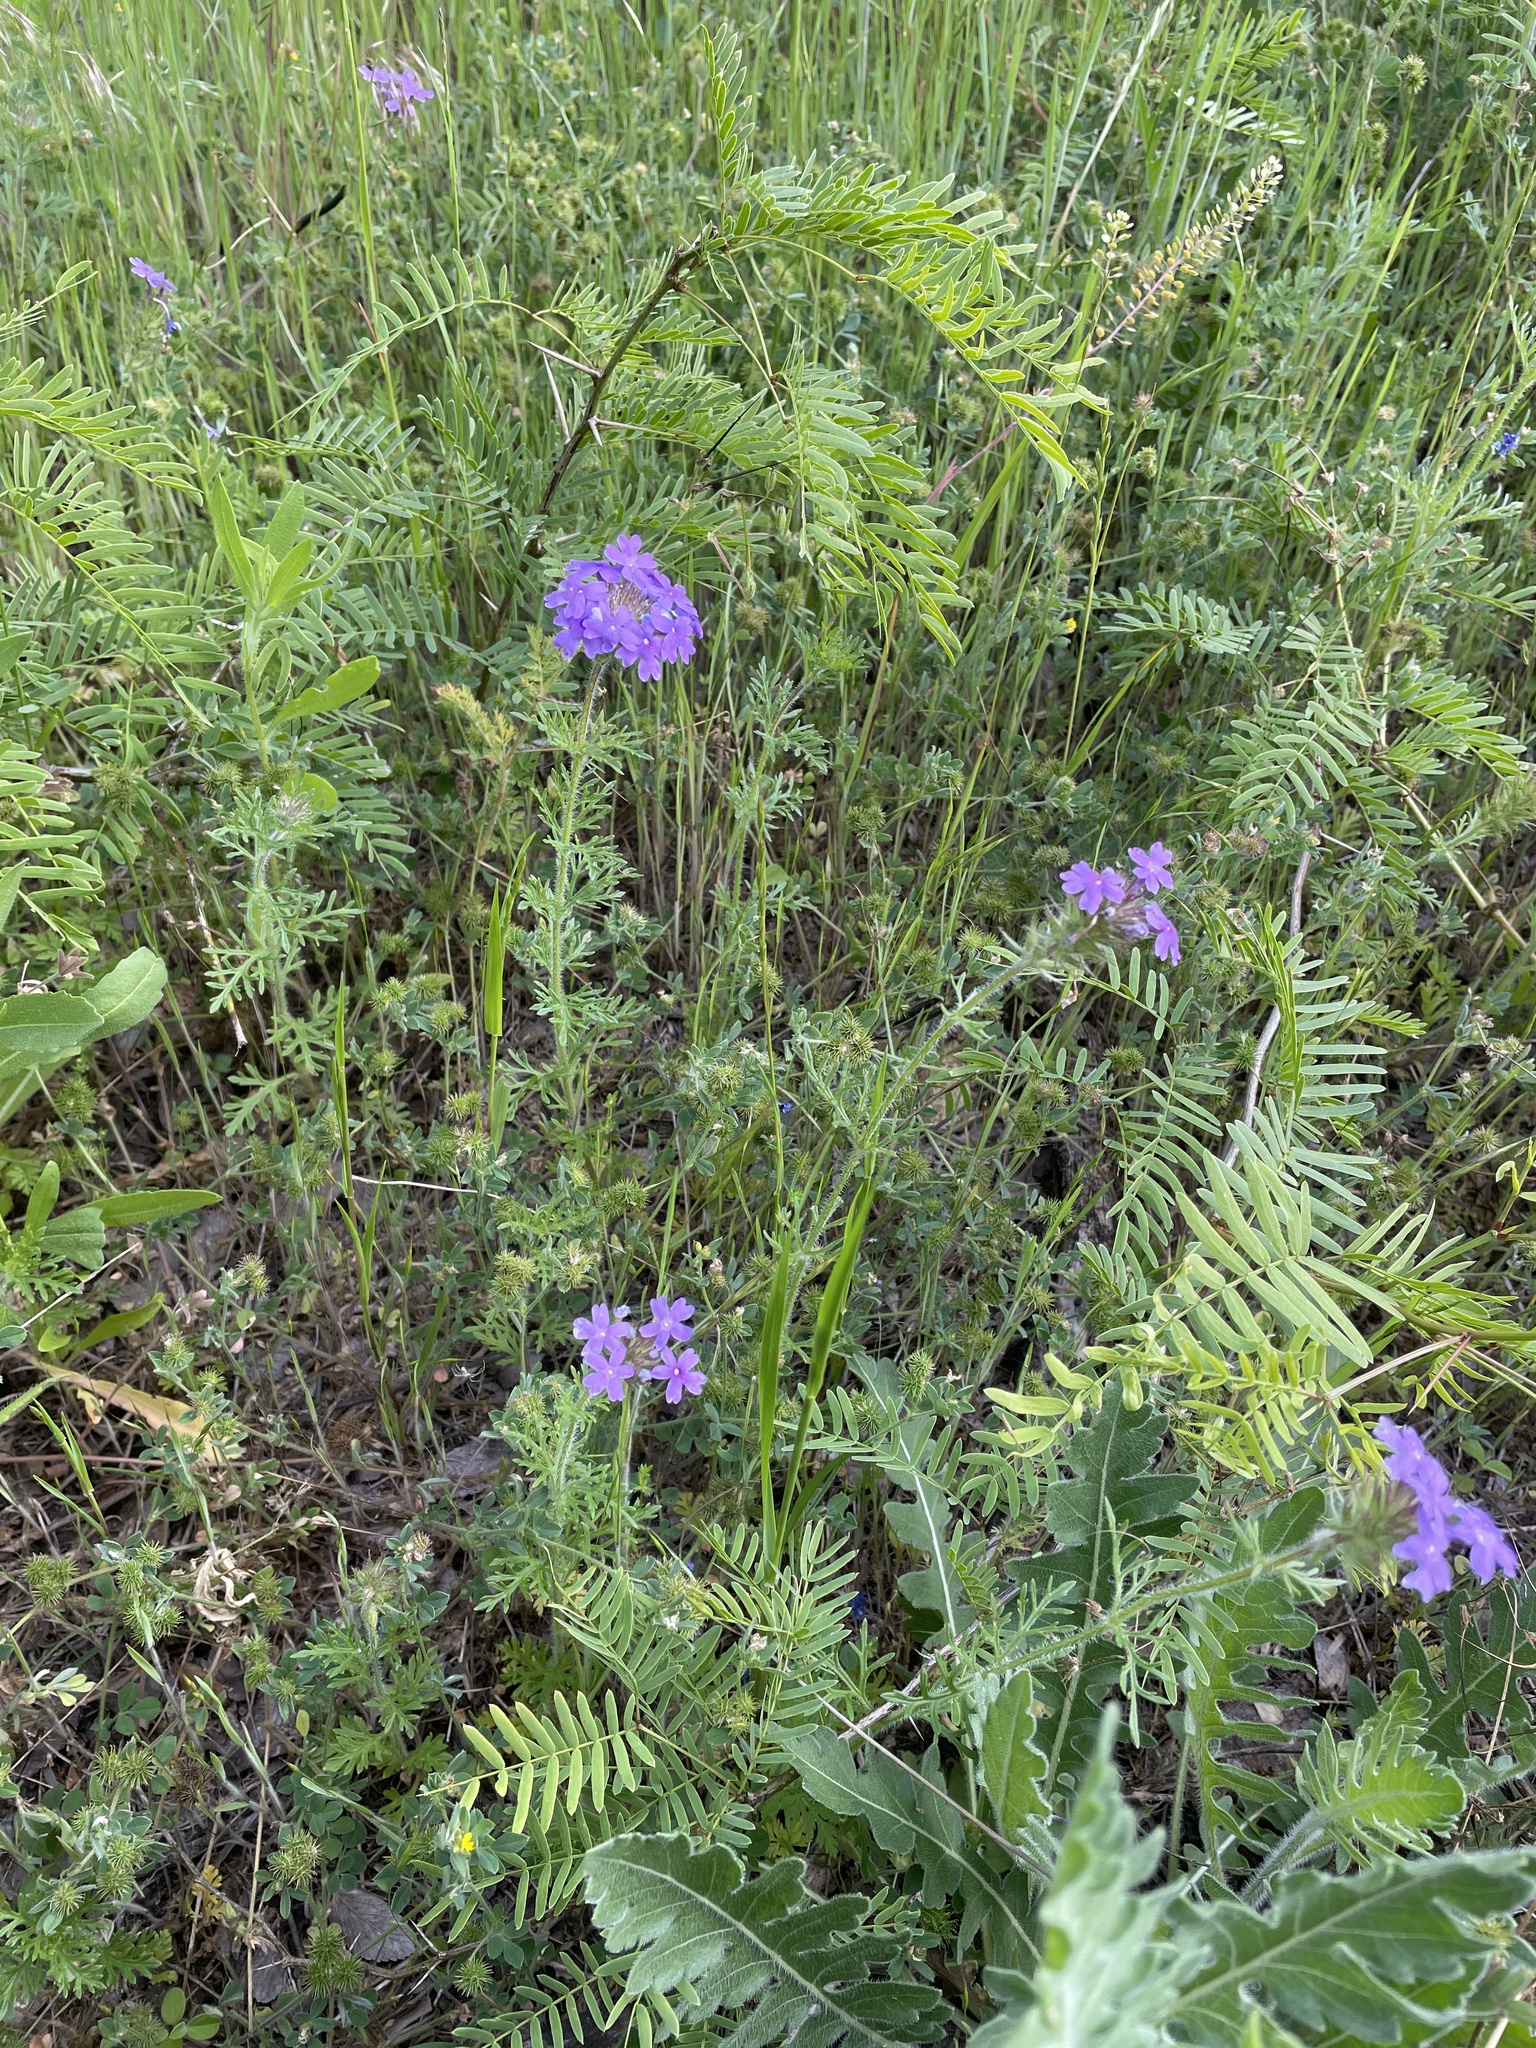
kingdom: Plantae
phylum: Tracheophyta
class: Magnoliopsida
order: Lamiales
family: Verbenaceae
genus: Verbena
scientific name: Verbena bipinnatifida
